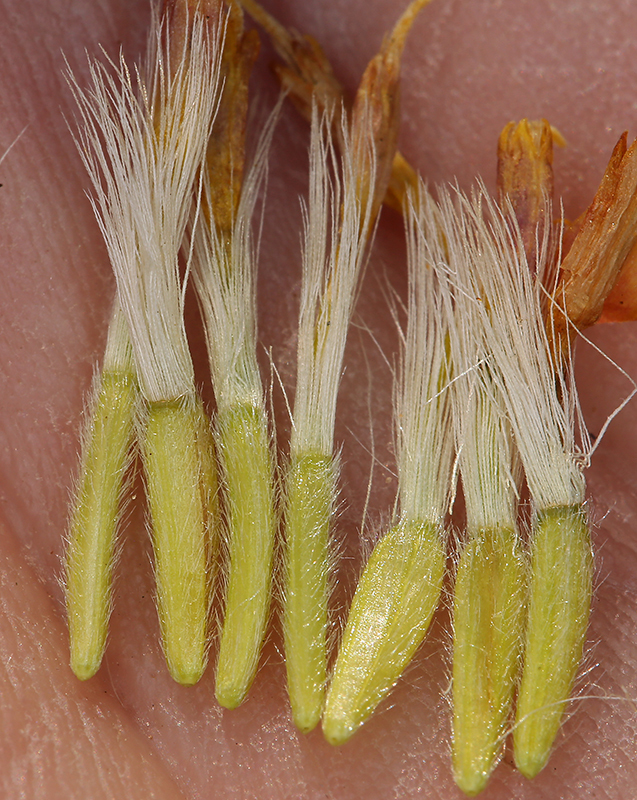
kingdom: Plantae
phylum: Tracheophyta
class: Magnoliopsida
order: Asterales
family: Asteraceae
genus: Ericameria
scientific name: Ericameria suffruticosa
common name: Goldenweed
